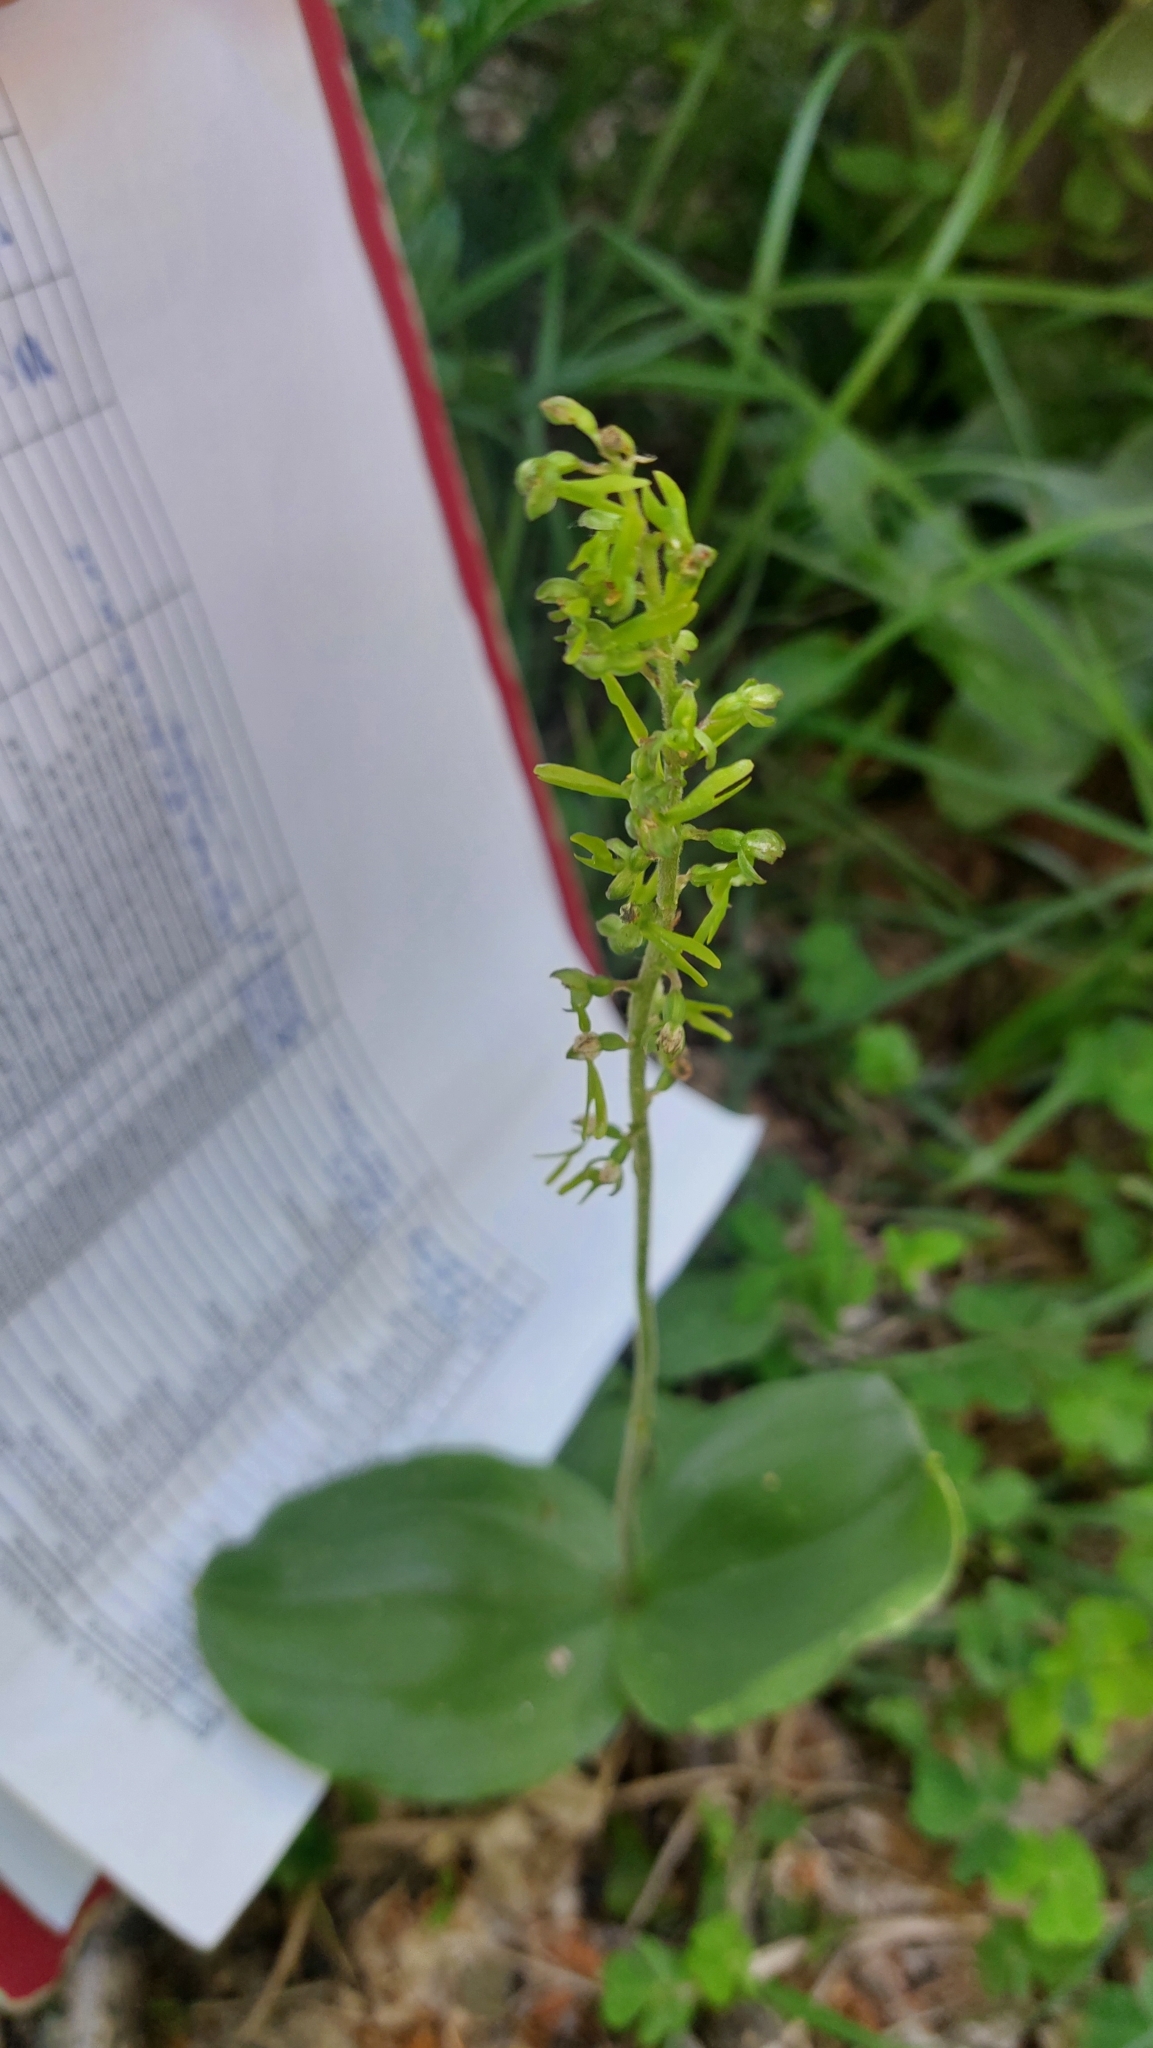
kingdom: Plantae
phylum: Tracheophyta
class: Liliopsida
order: Asparagales
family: Orchidaceae
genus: Neottia
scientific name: Neottia ovata
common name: Common twayblade
